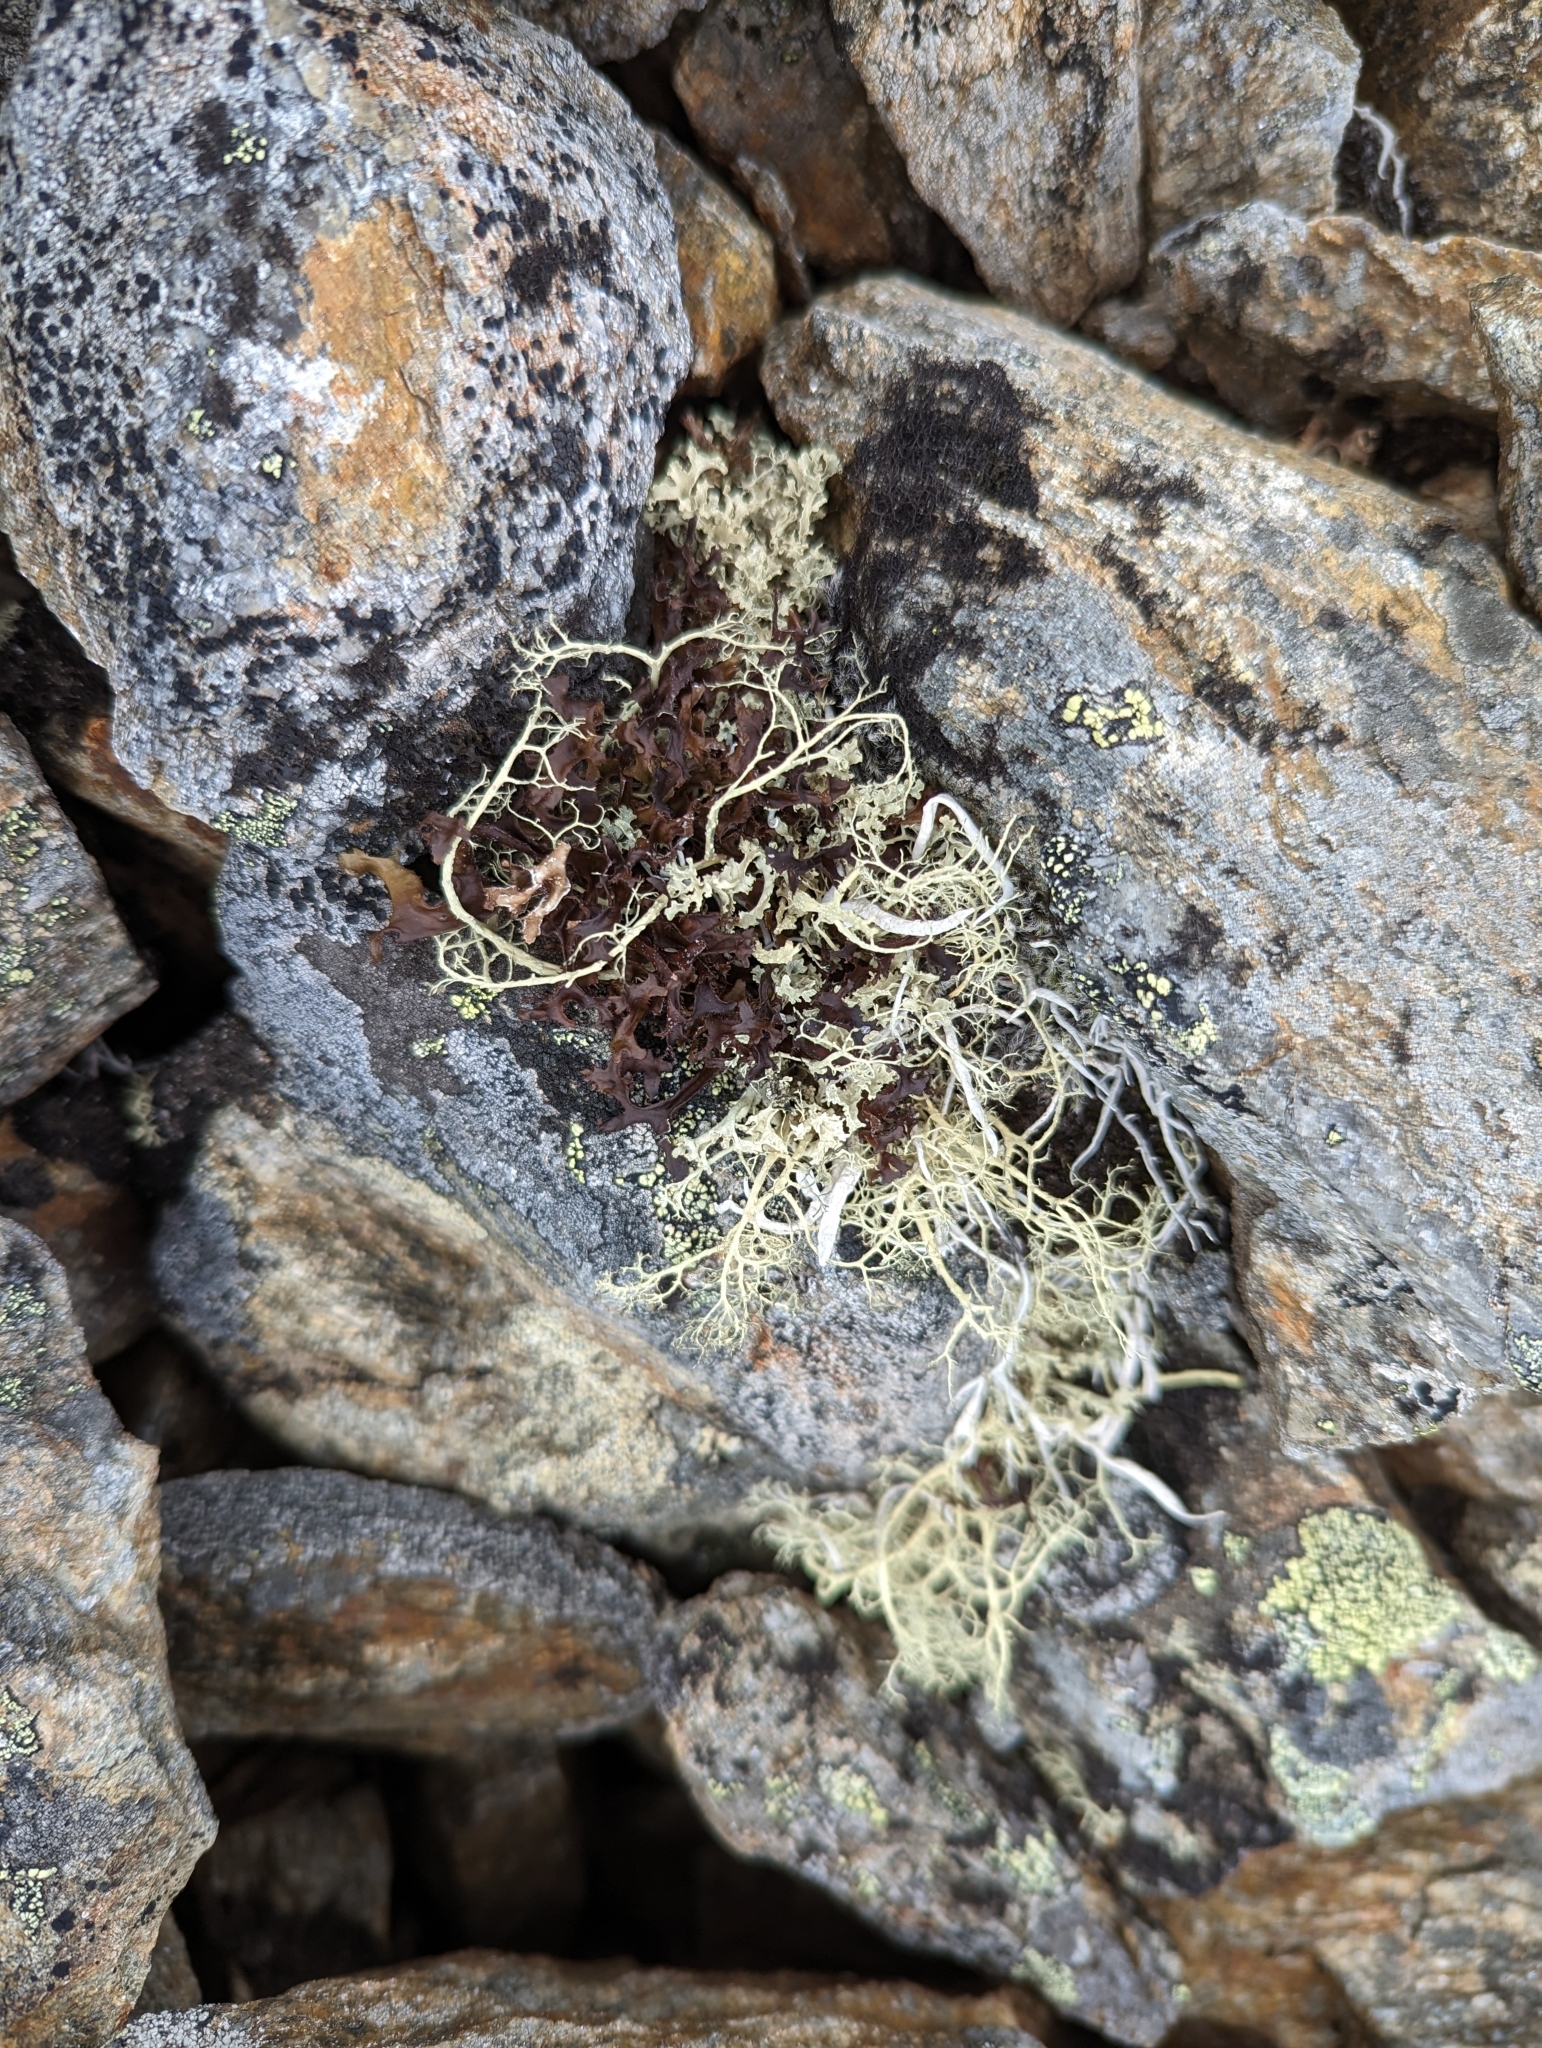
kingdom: Fungi
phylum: Ascomycota
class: Lecanoromycetes
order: Lecanorales
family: Parmeliaceae
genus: Alectoria
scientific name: Alectoria ochroleuca
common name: Alpine sulphur-tresses
